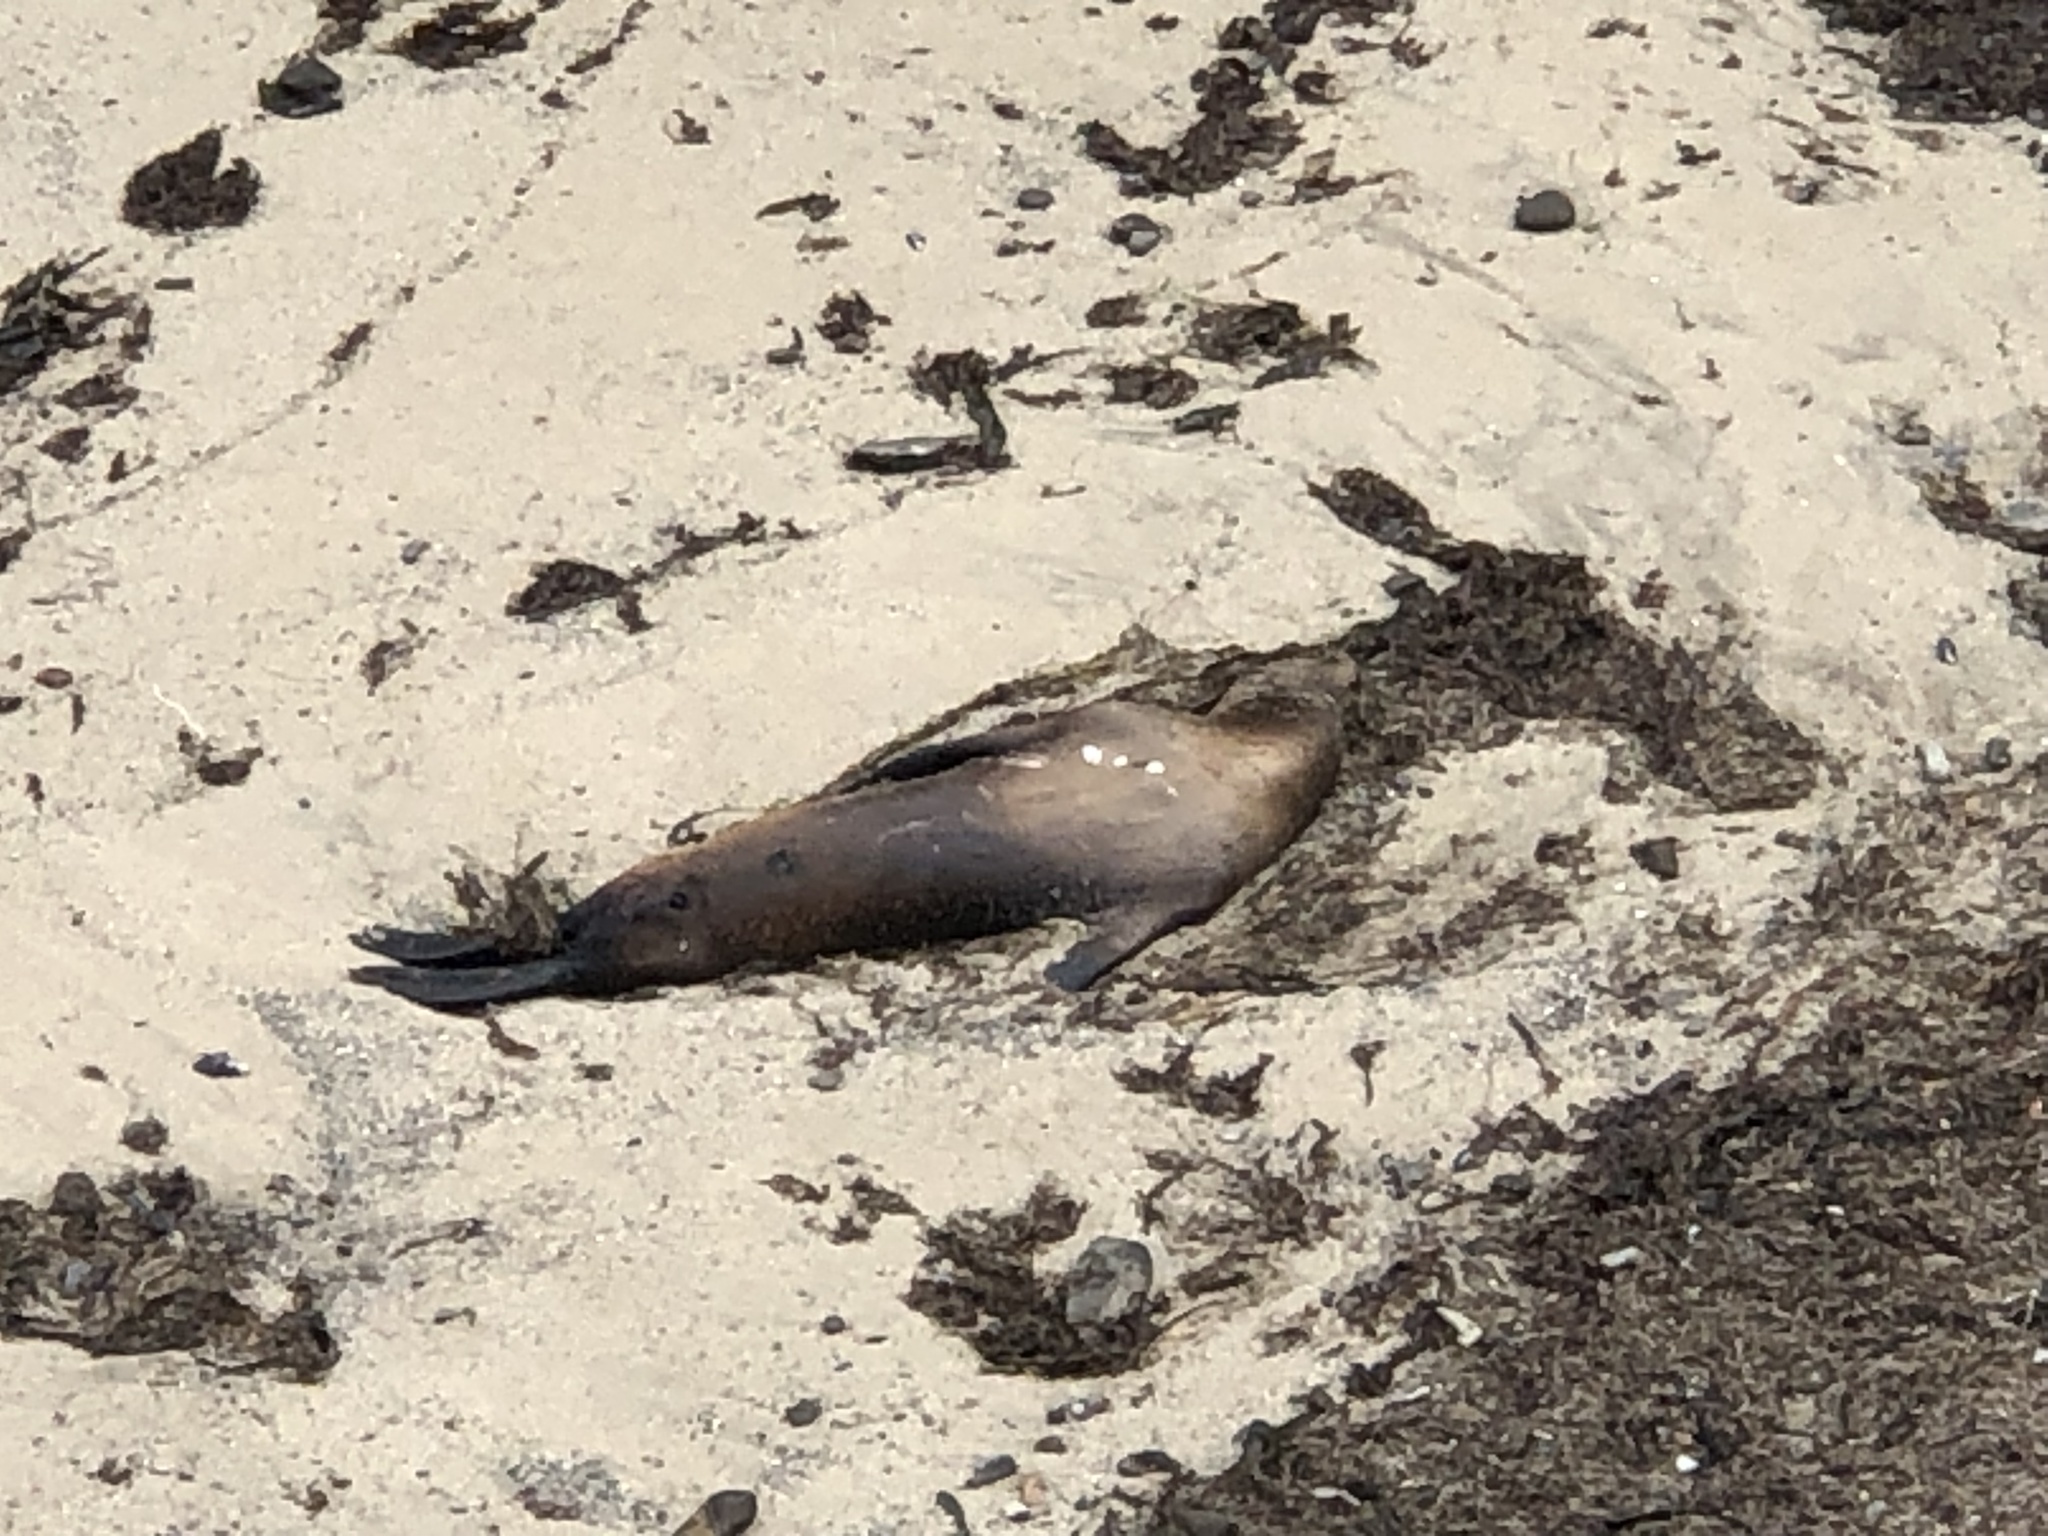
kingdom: Animalia
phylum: Chordata
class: Mammalia
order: Carnivora
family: Otariidae
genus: Zalophus
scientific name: Zalophus californianus
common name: California sea lion
